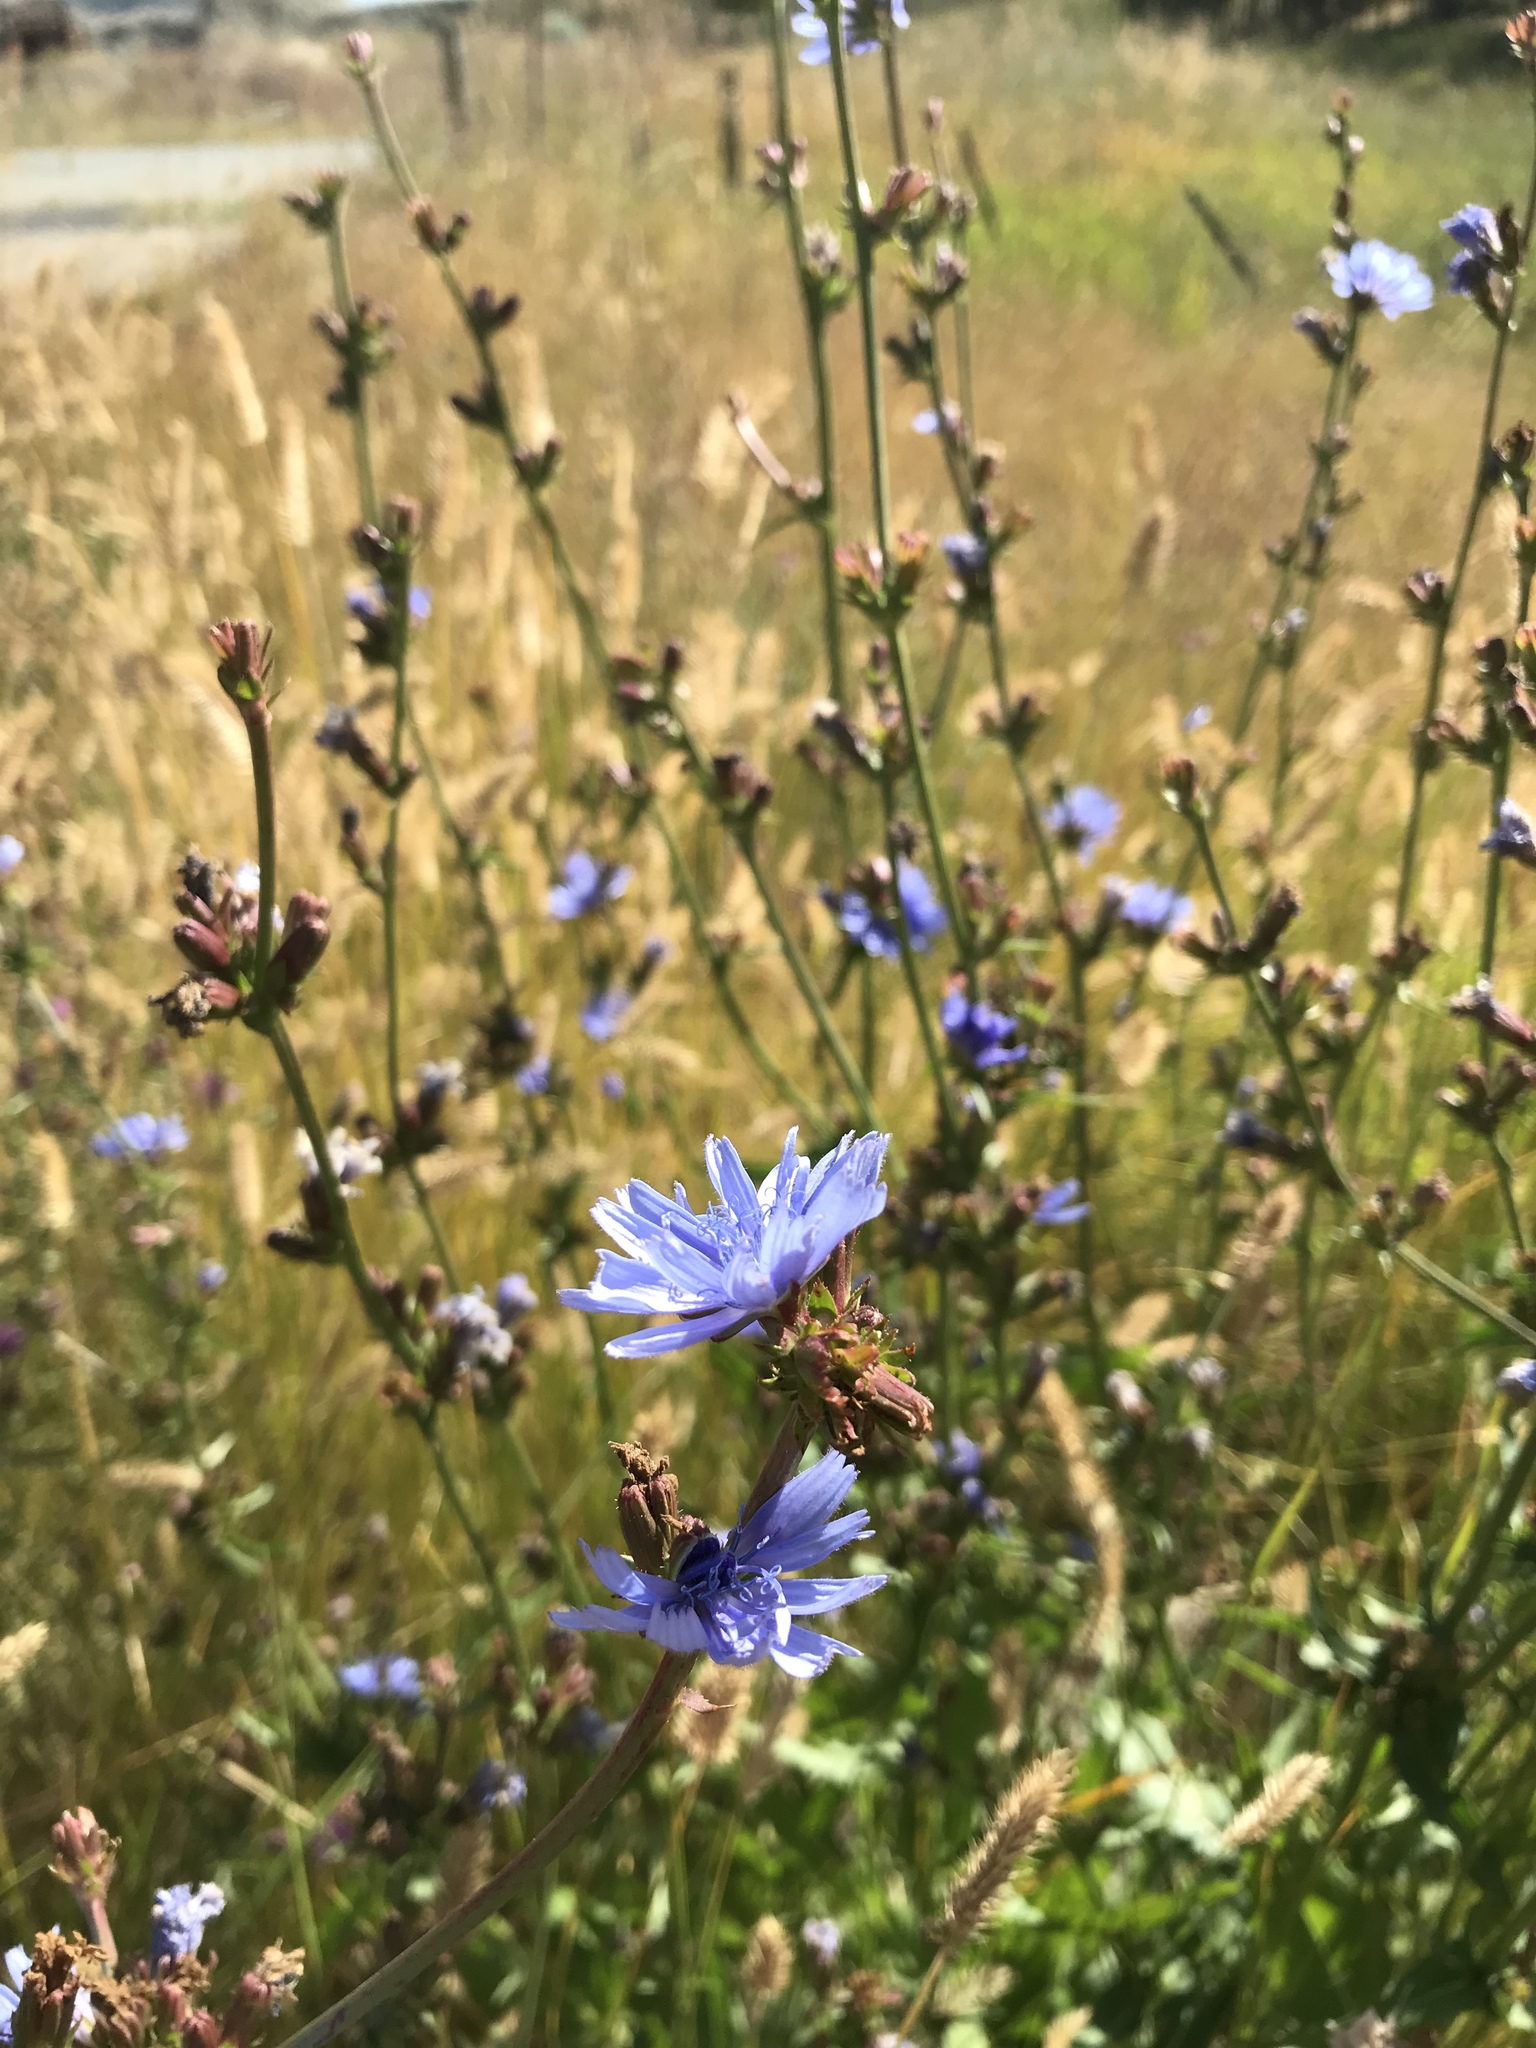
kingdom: Plantae
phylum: Tracheophyta
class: Magnoliopsida
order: Asterales
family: Asteraceae
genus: Cichorium
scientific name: Cichorium intybus
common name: Chicory
